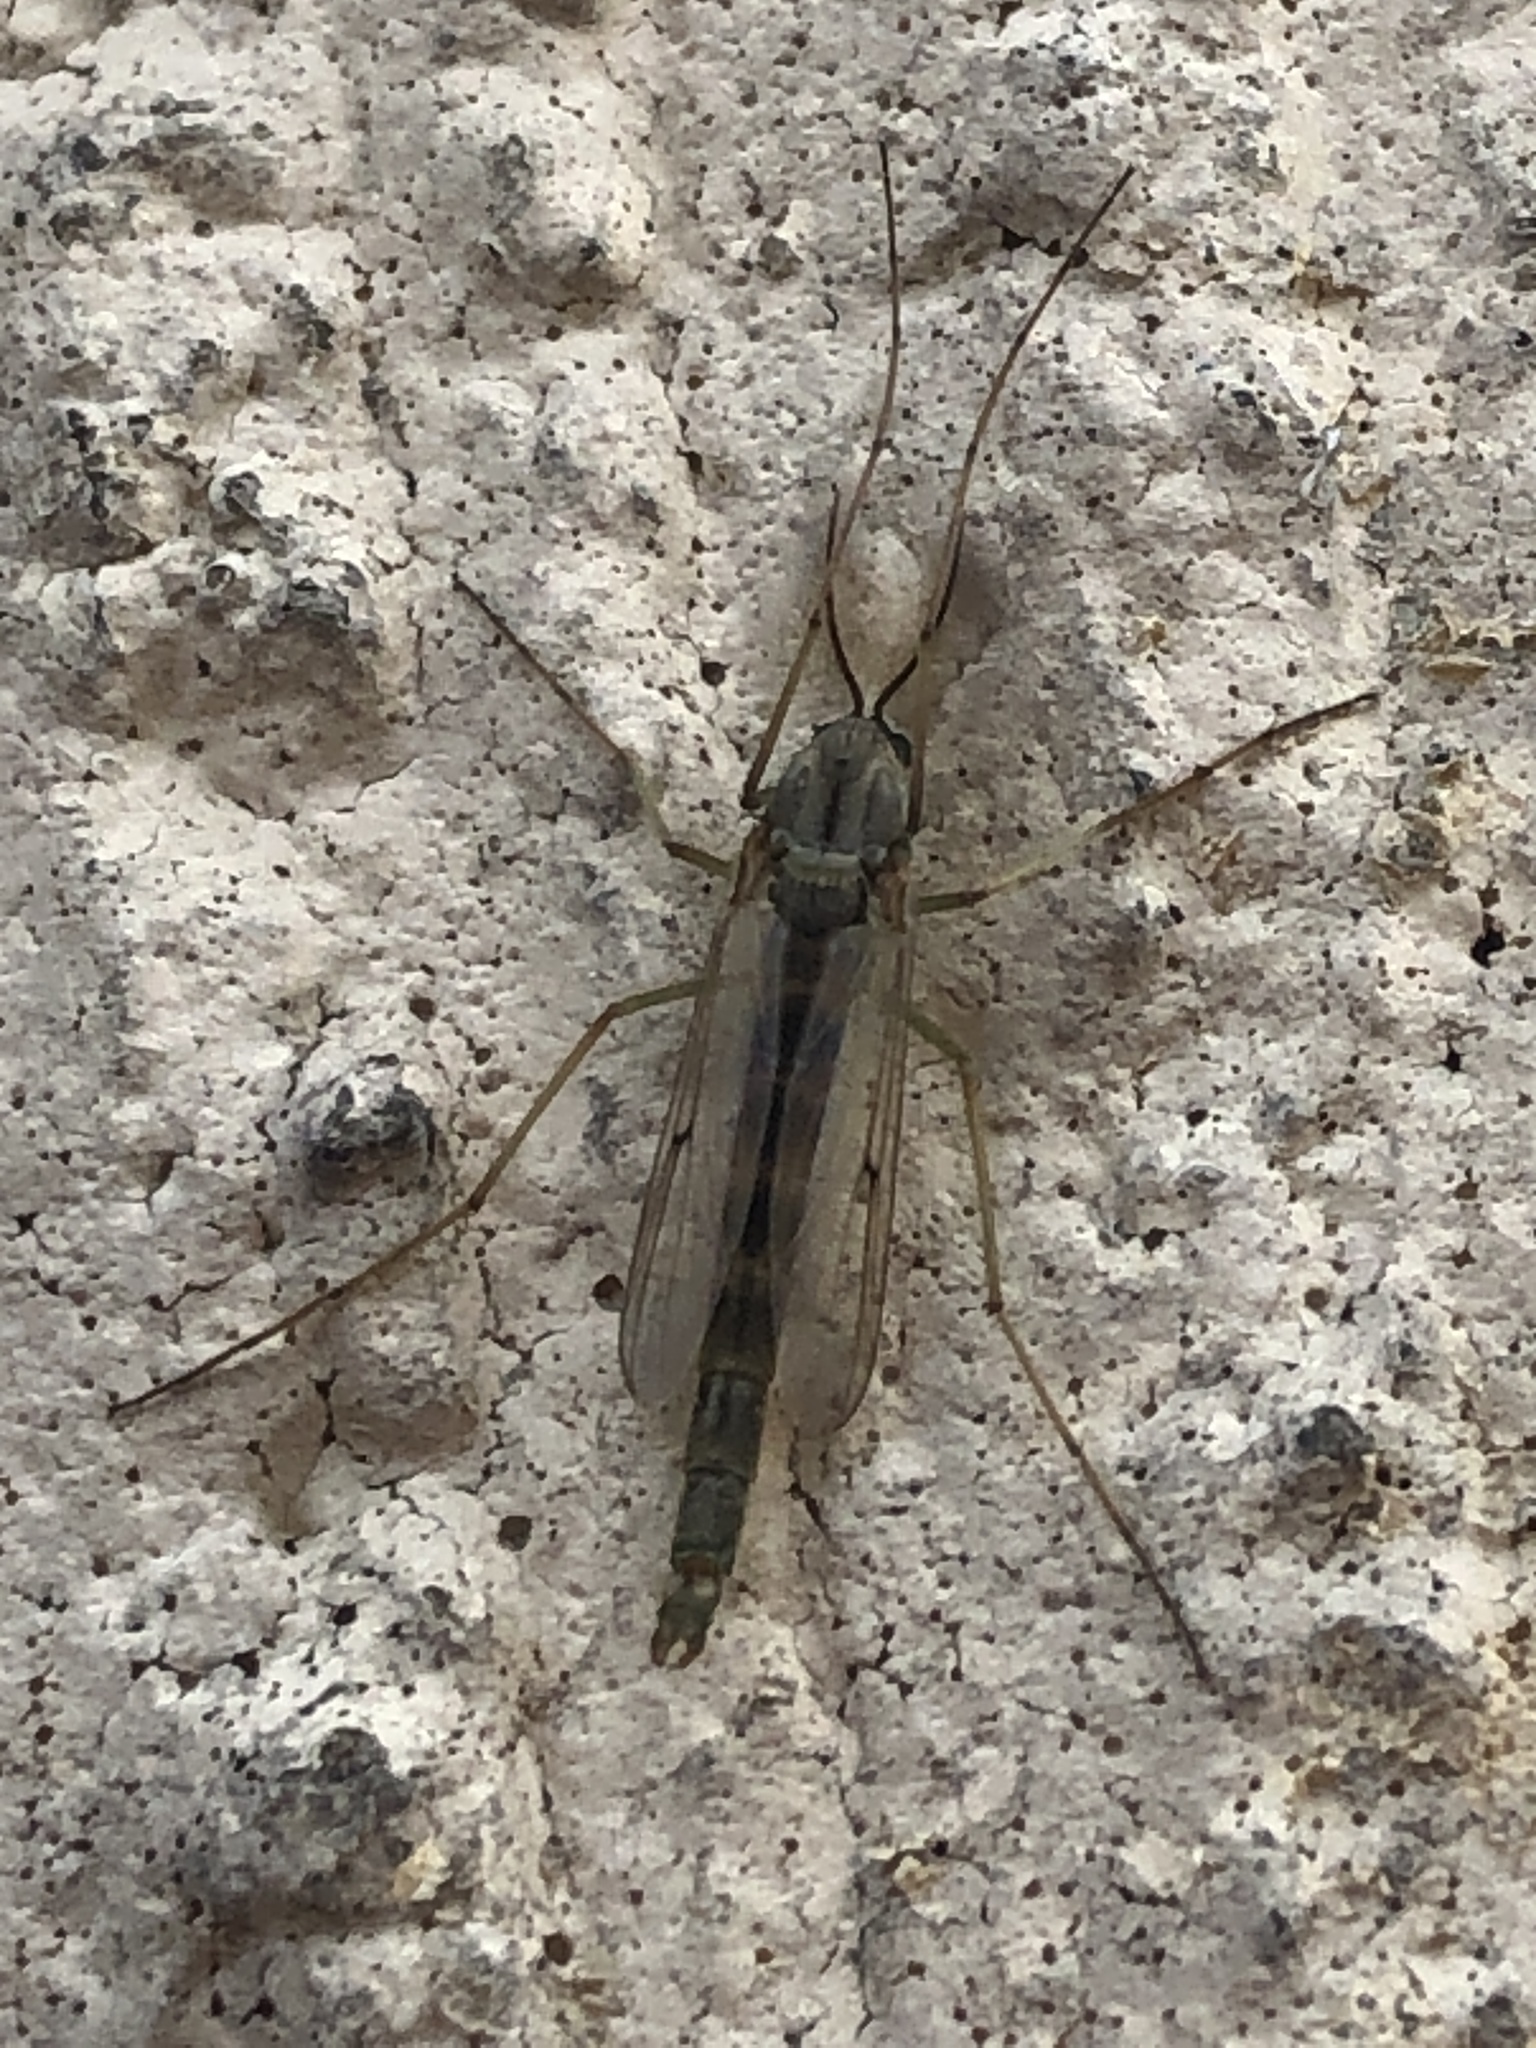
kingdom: Animalia
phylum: Arthropoda
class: Insecta
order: Diptera
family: Chironomidae
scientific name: Chironomidae
